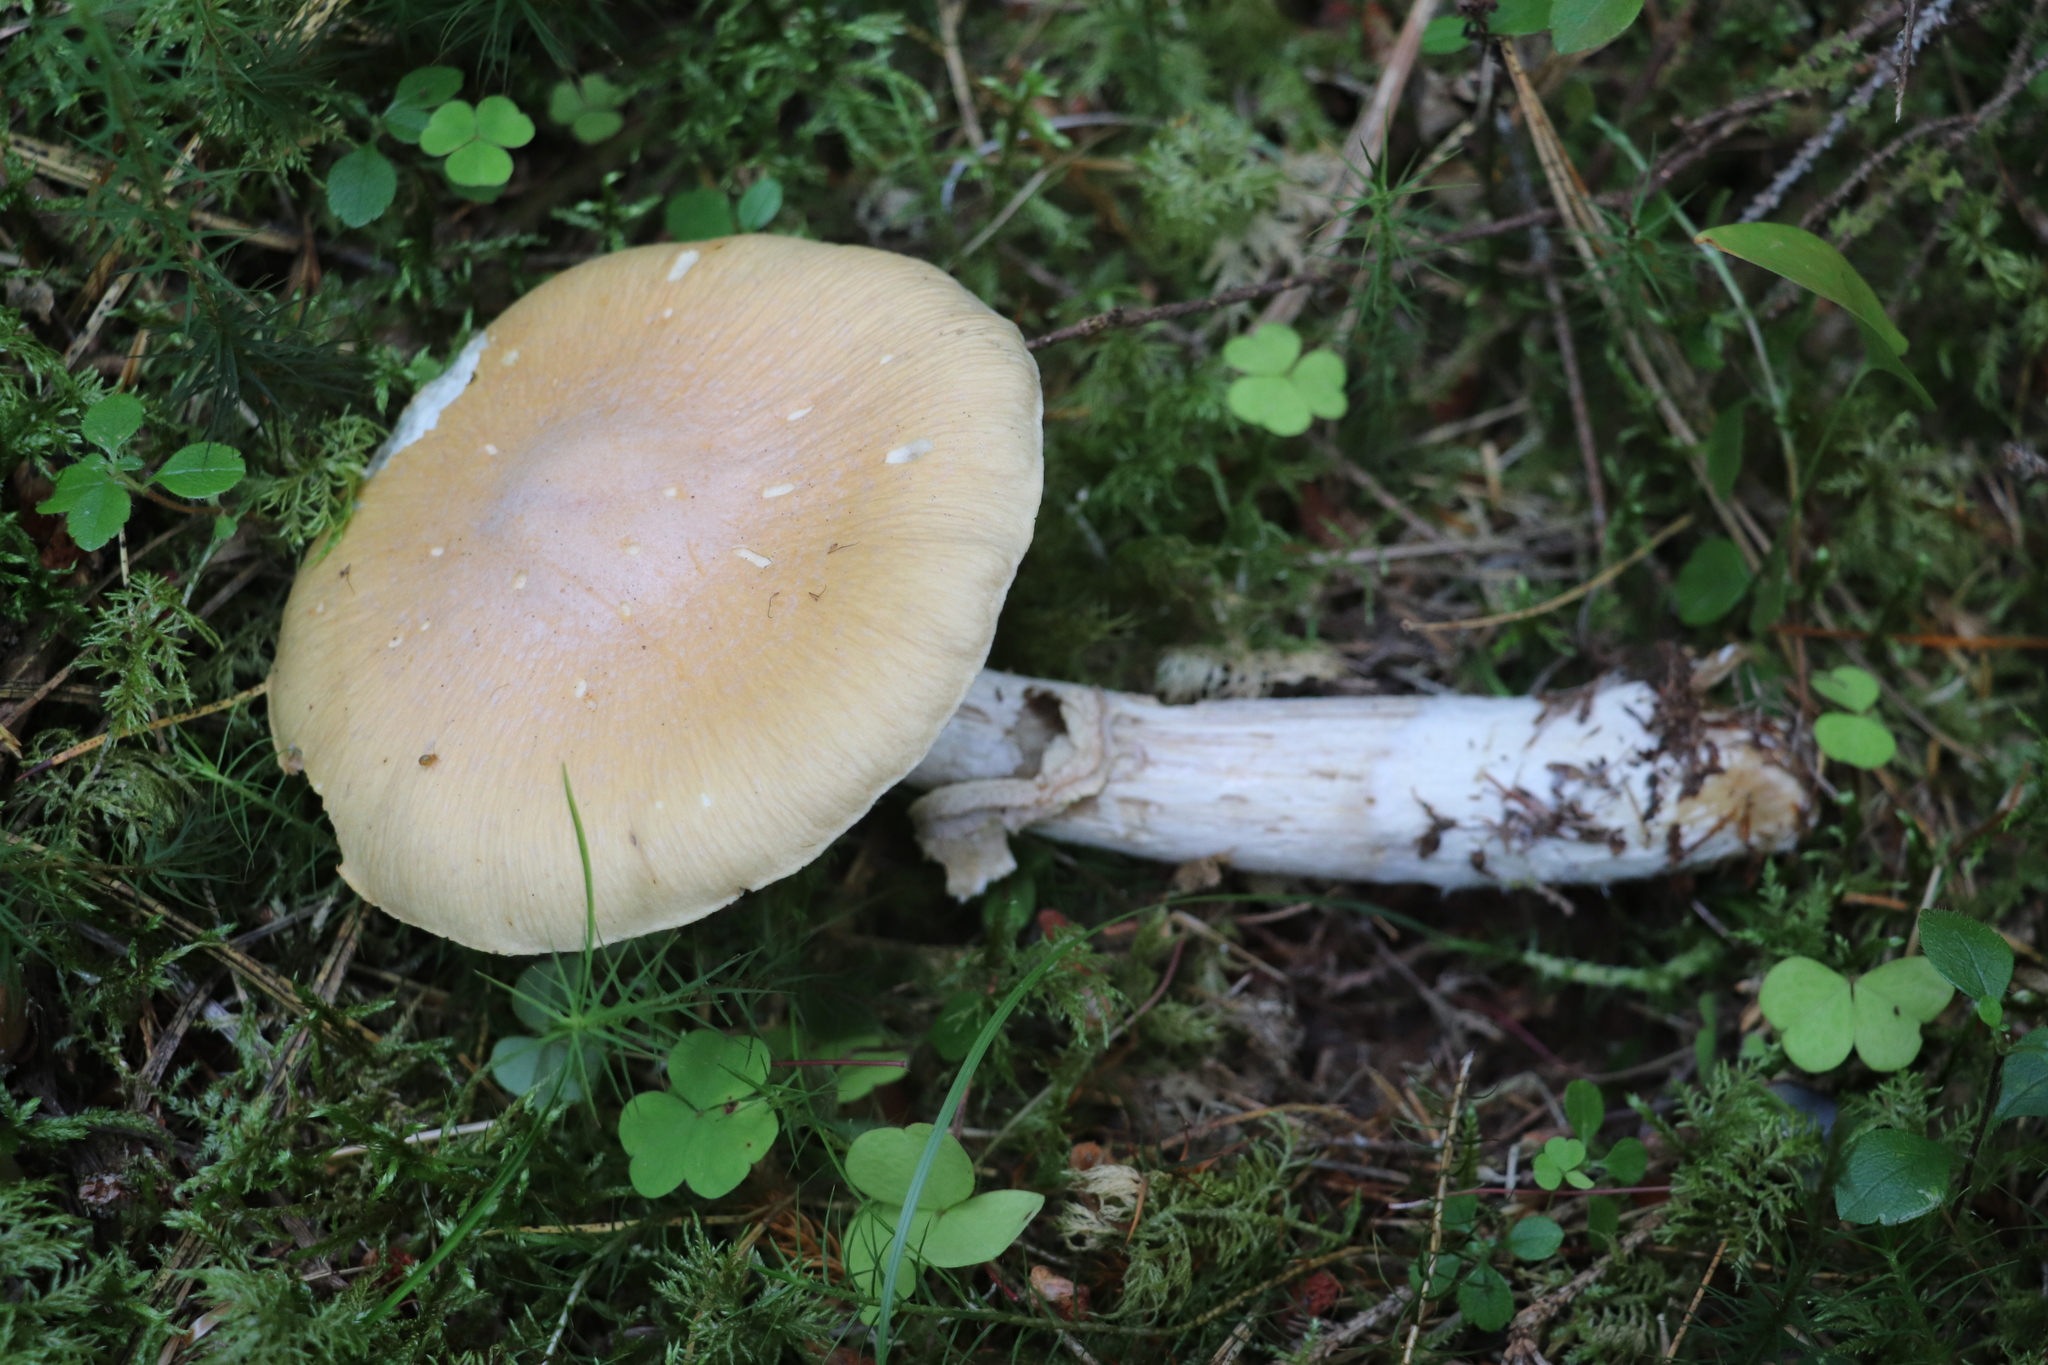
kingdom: Fungi
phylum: Basidiomycota
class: Agaricomycetes
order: Agaricales
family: Cortinariaceae
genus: Cortinarius
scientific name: Cortinarius caperatus
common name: The gypsy
